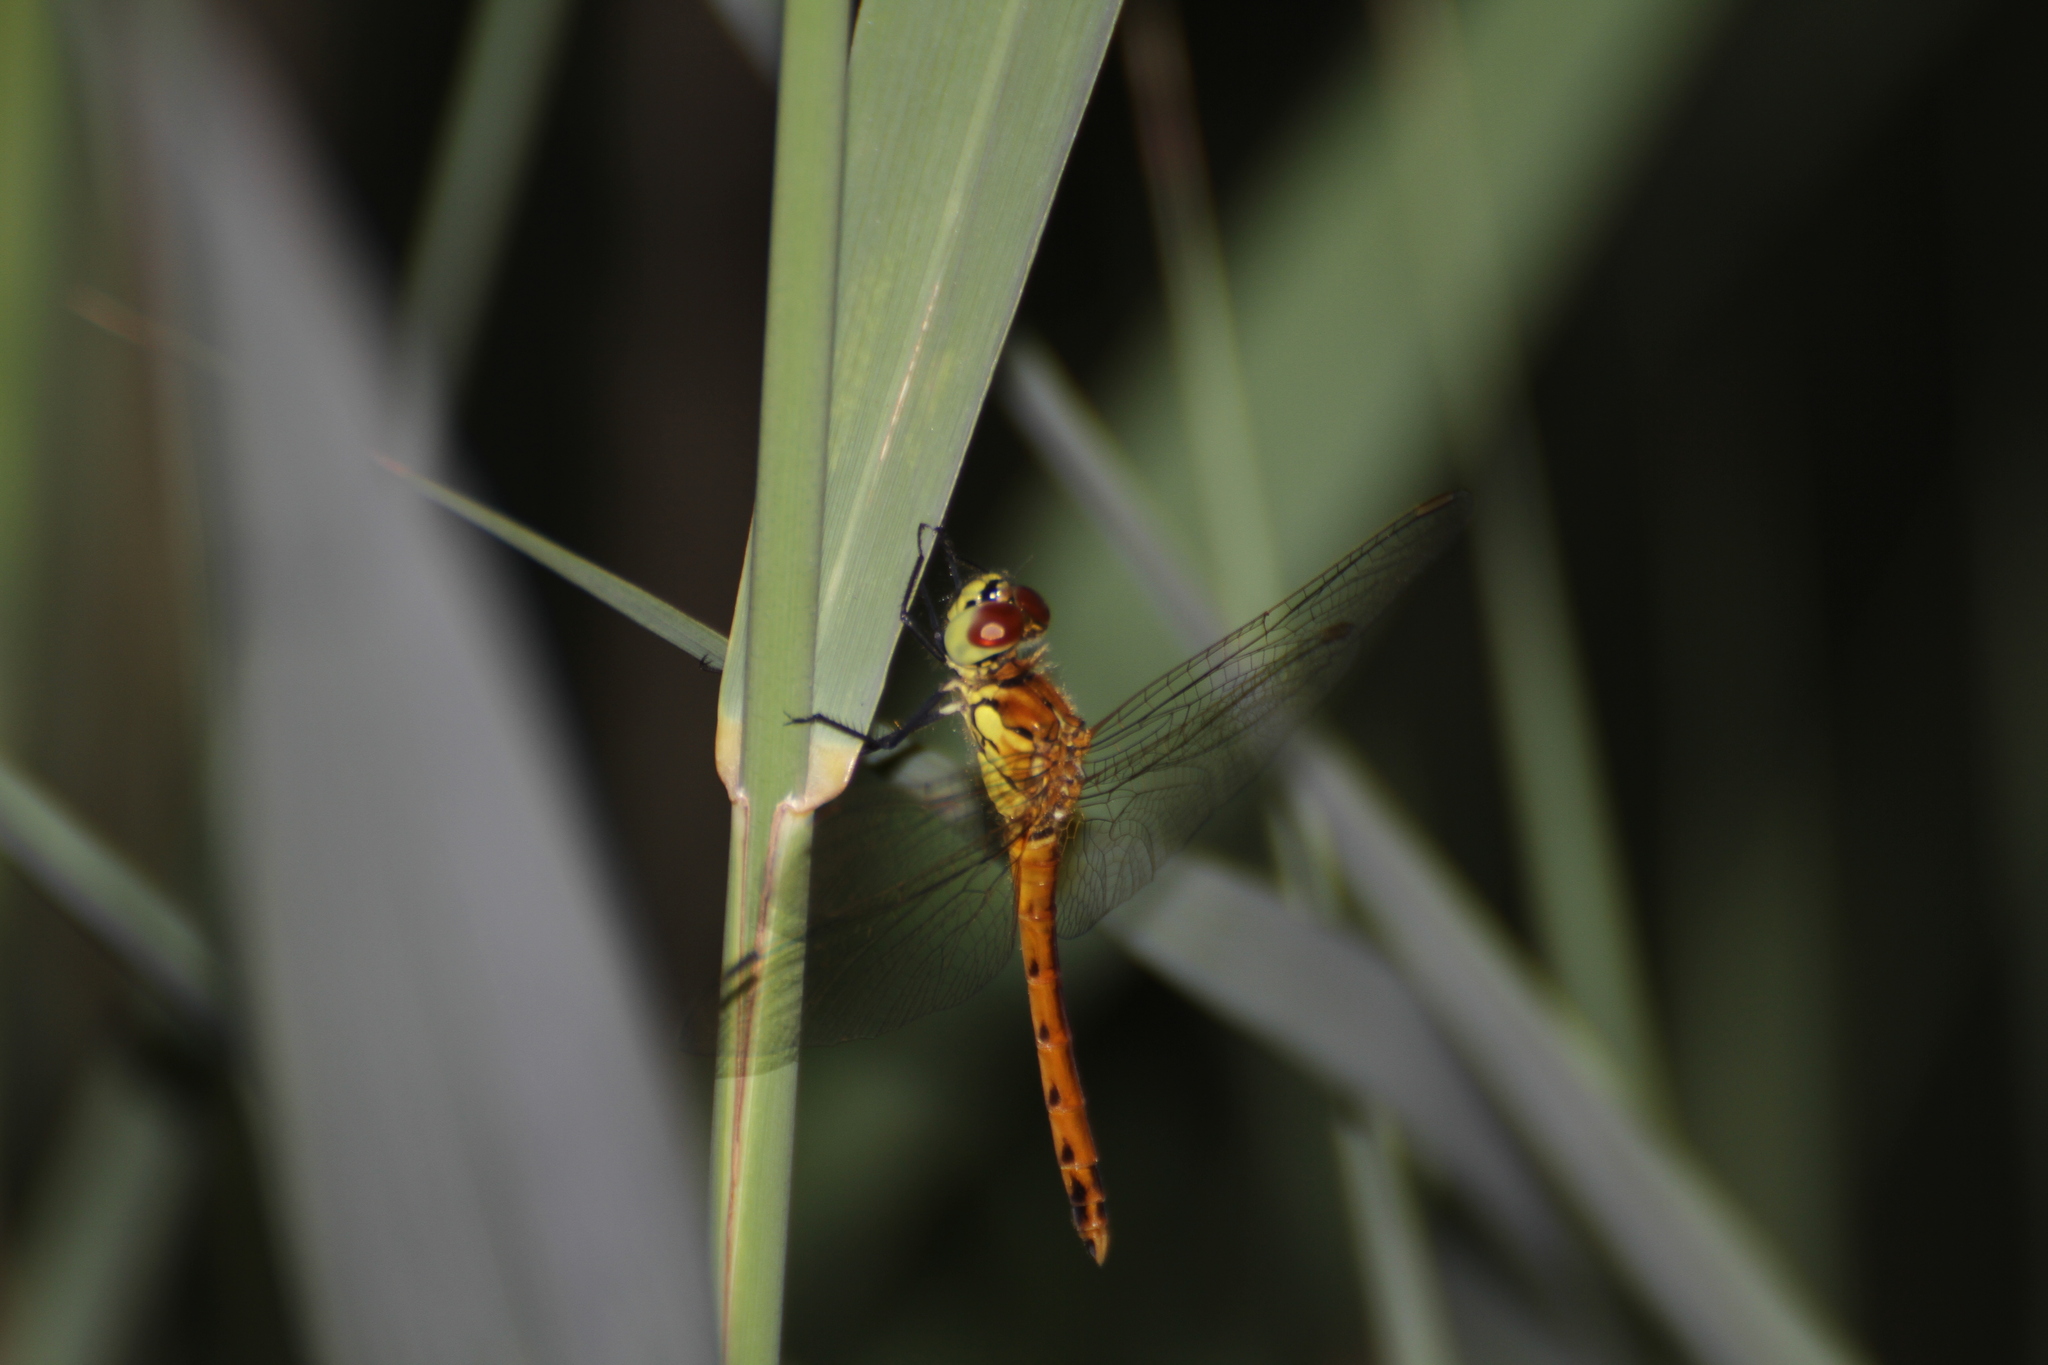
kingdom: Animalia
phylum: Arthropoda
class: Insecta
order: Odonata
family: Libellulidae
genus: Sympetrum
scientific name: Sympetrum depressiusculum
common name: Spotted darter
